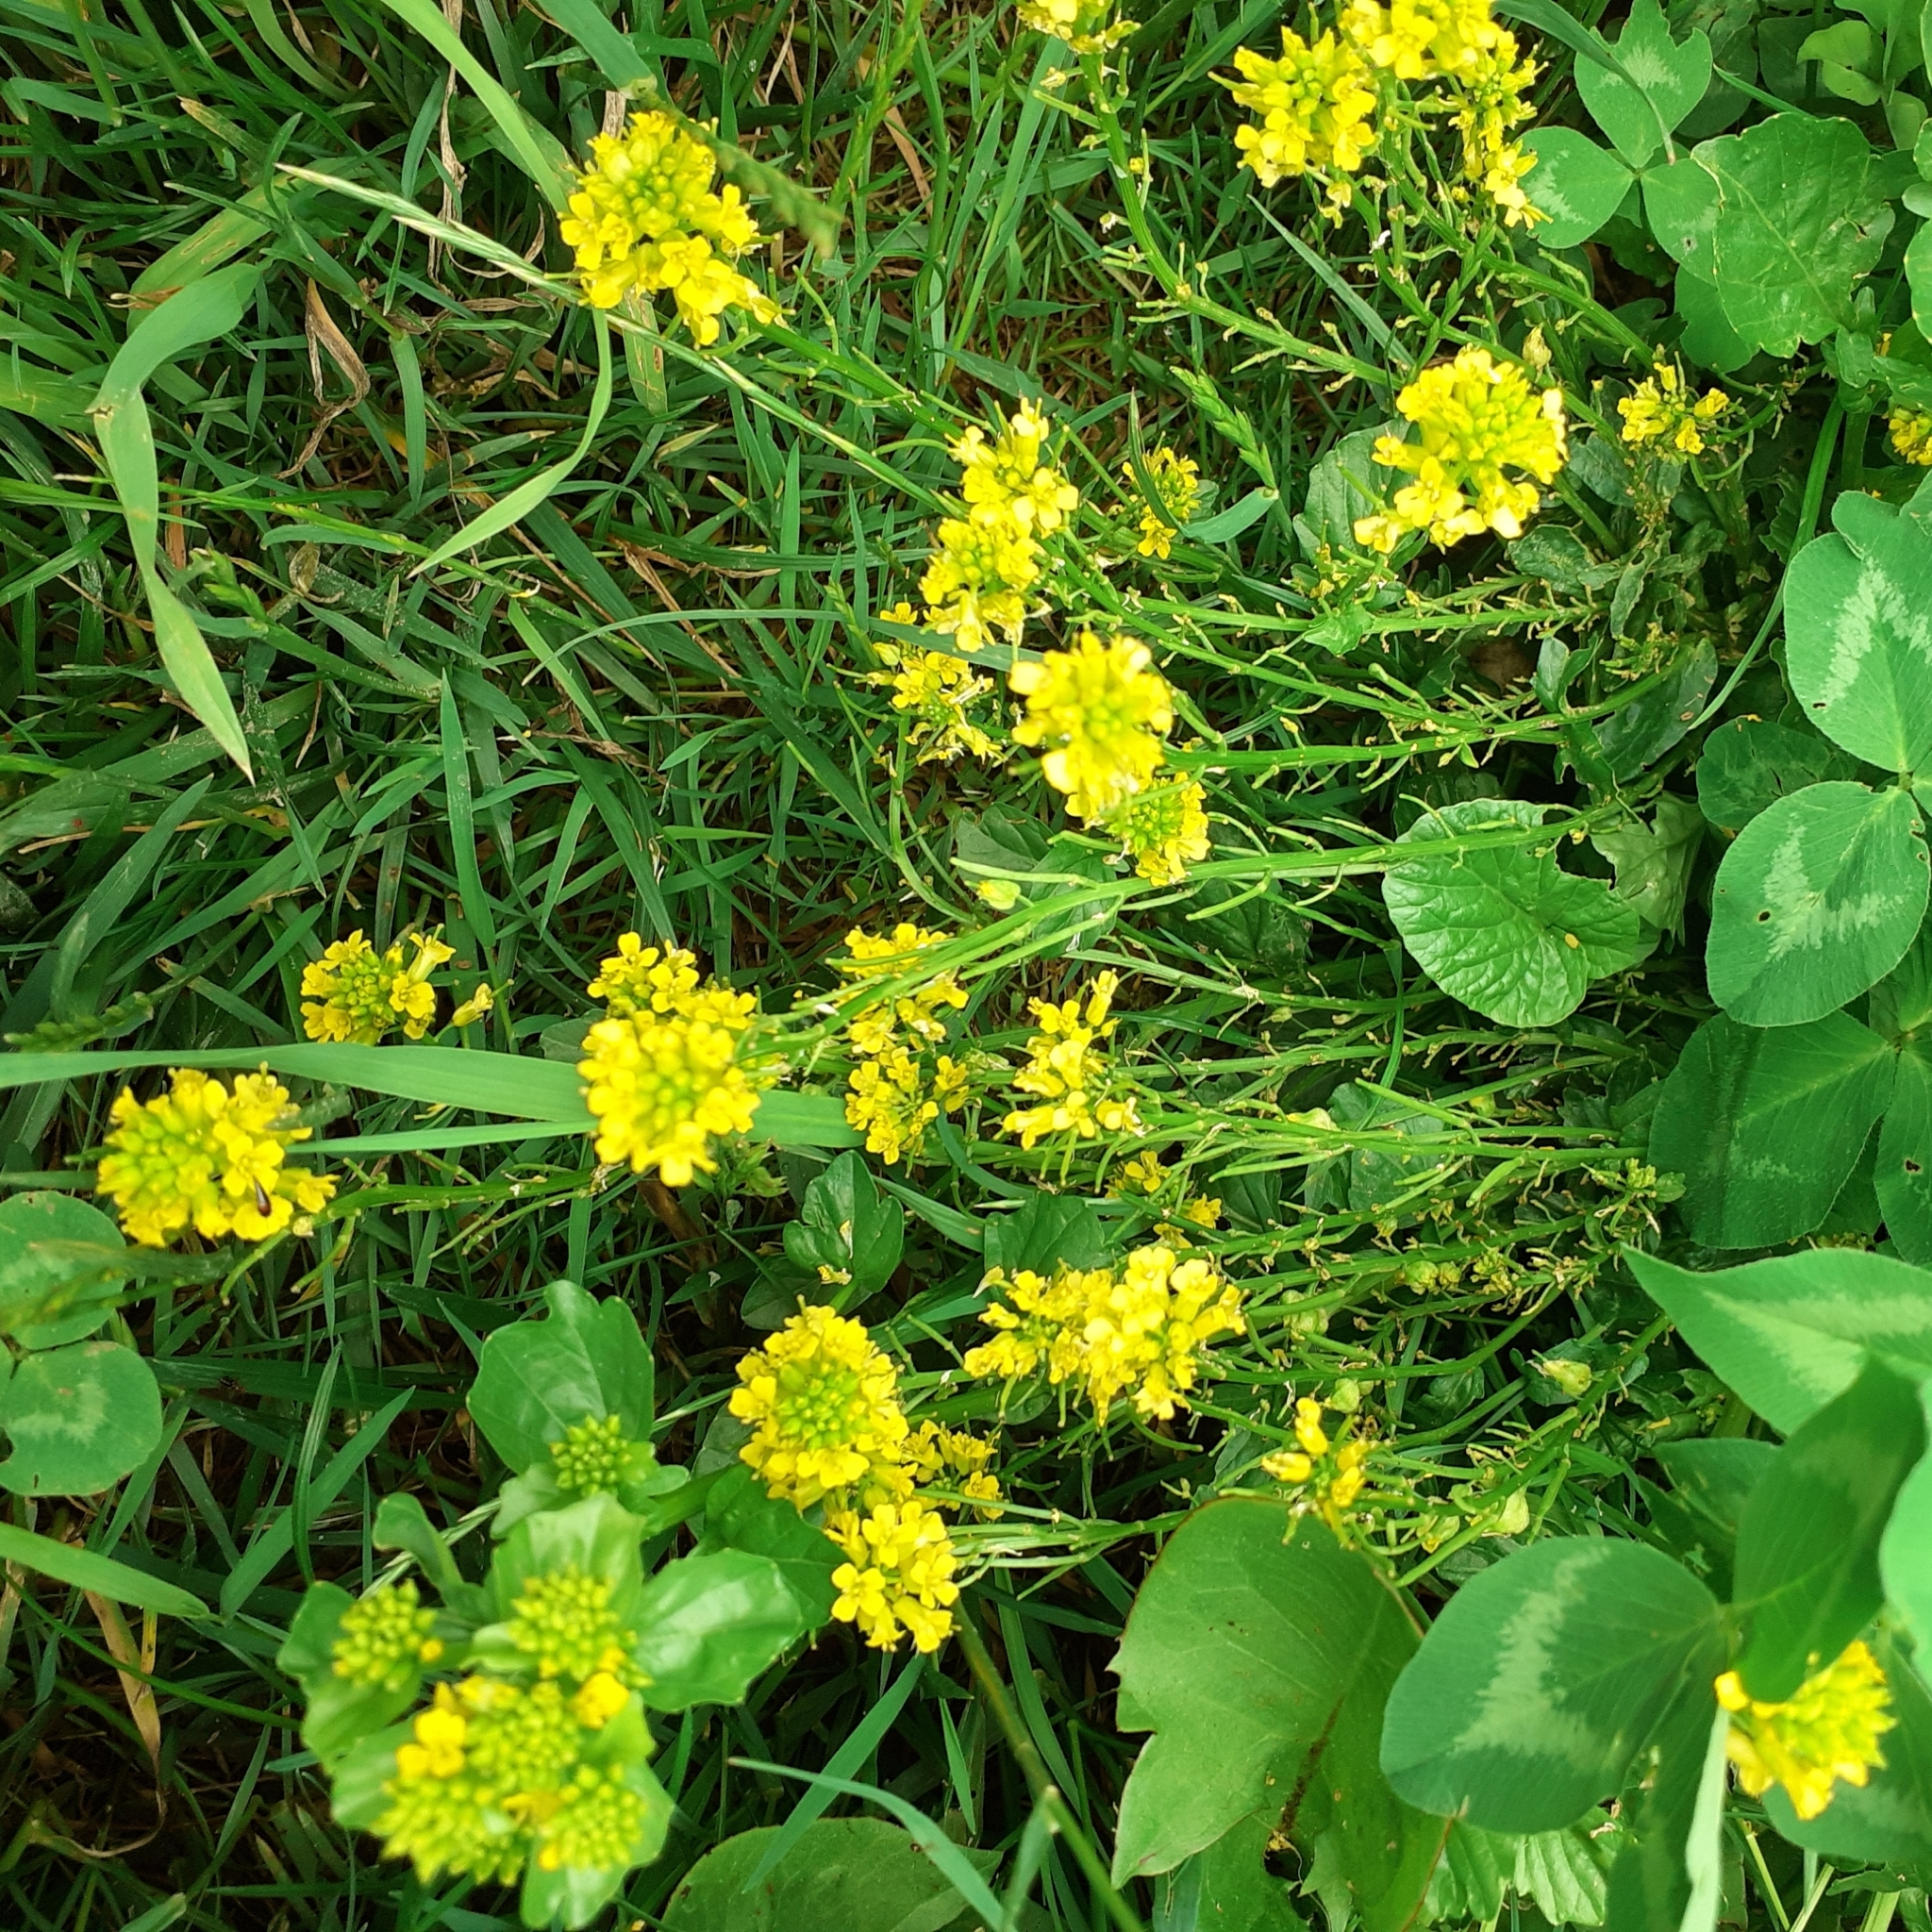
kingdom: Plantae
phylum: Tracheophyta
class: Magnoliopsida
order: Brassicales
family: Brassicaceae
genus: Barbarea
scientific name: Barbarea vulgaris
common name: Cressy-greens
